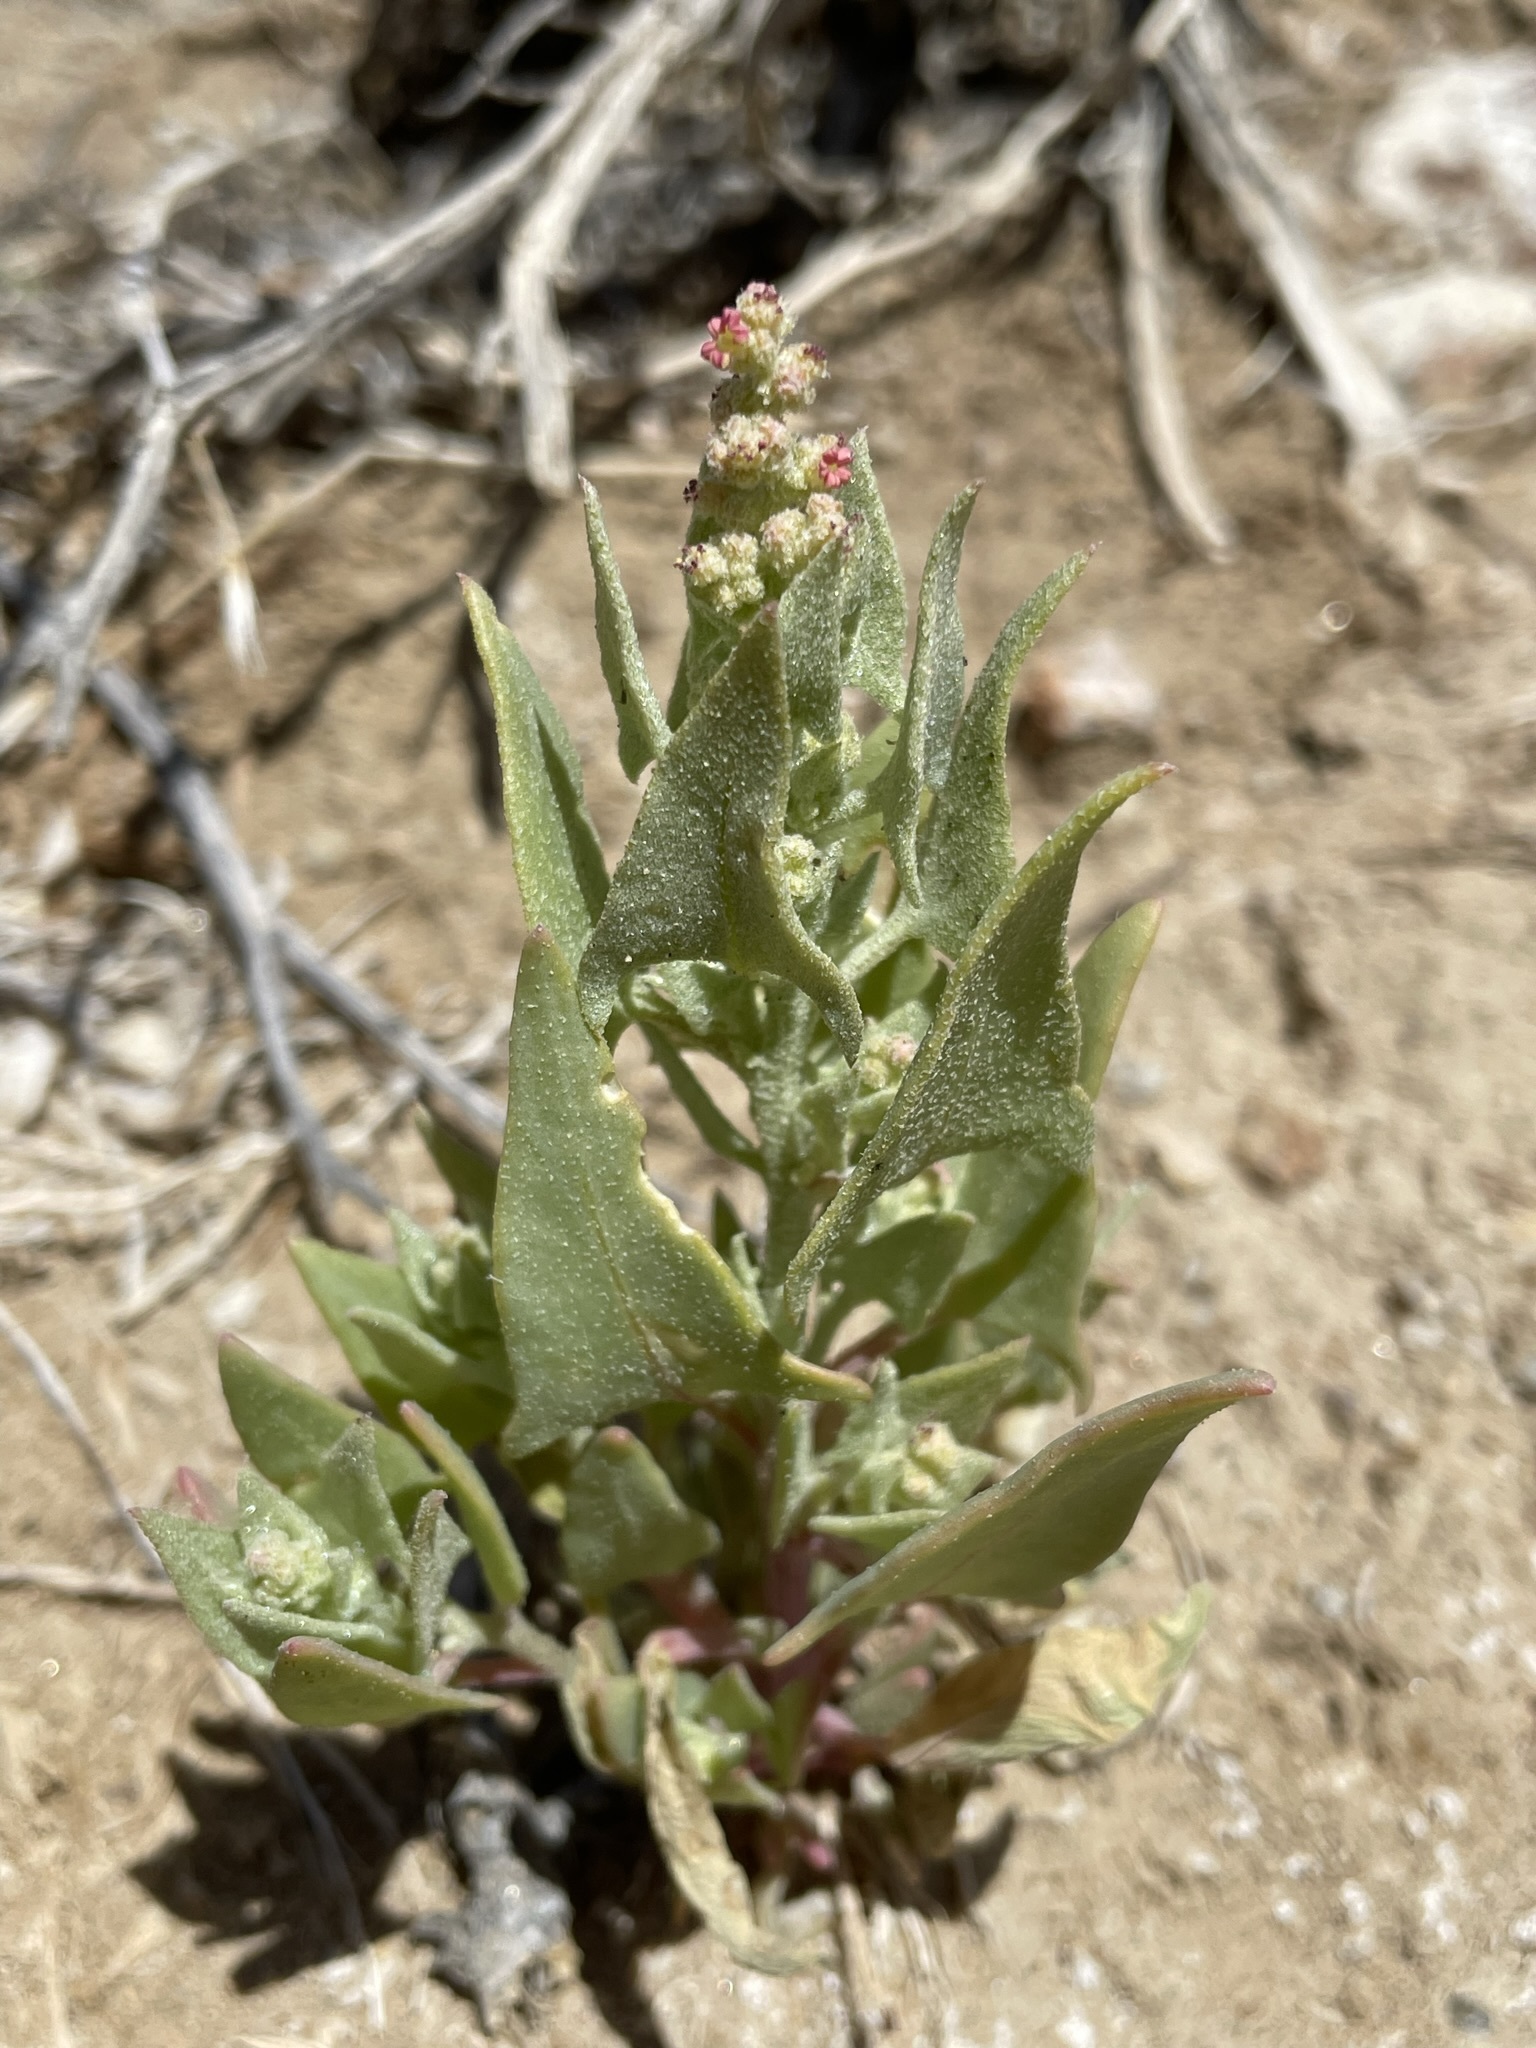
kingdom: Plantae
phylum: Tracheophyta
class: Magnoliopsida
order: Caryophyllales
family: Amaranthaceae
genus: Stutzia
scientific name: Stutzia covillei
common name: Coville's orach
